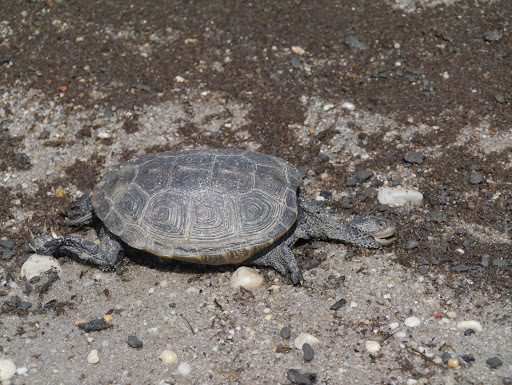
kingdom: Animalia
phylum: Chordata
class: Testudines
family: Emydidae
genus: Malaclemys
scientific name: Malaclemys terrapin
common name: Diamondback terrapin
